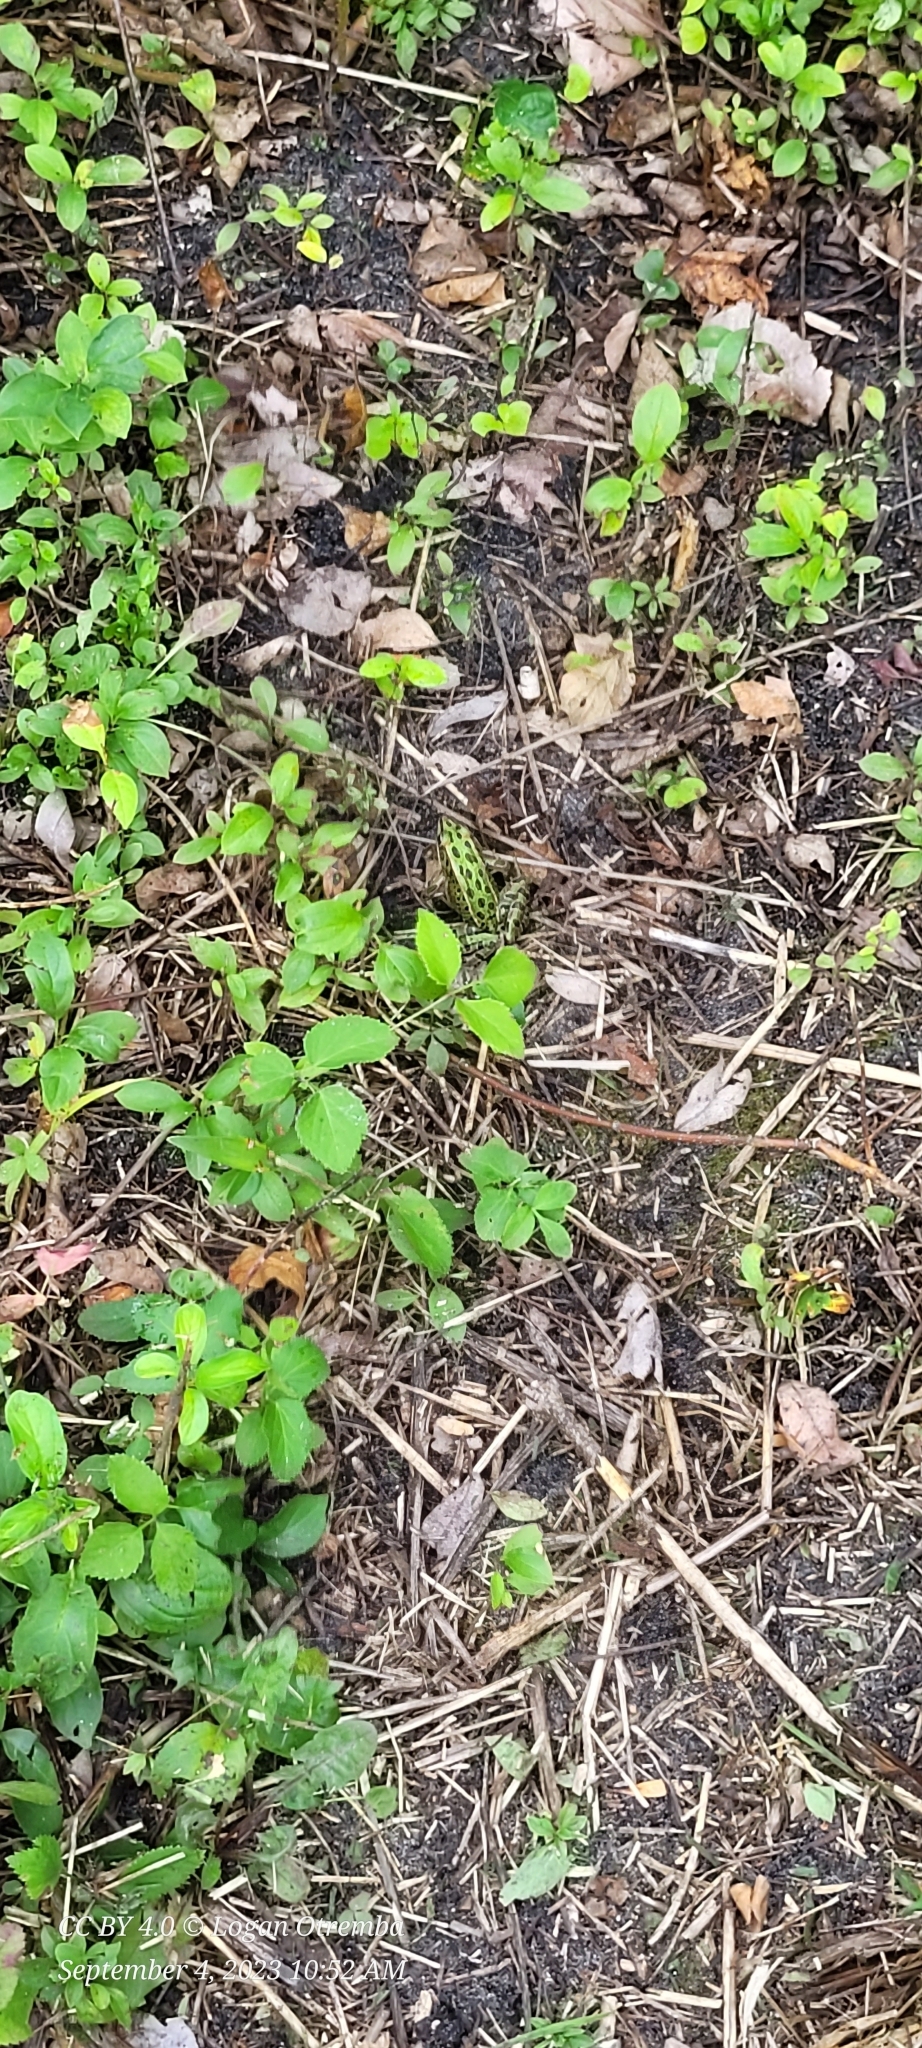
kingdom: Animalia
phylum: Chordata
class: Amphibia
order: Anura
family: Ranidae
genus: Lithobates
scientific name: Lithobates pipiens
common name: Northern leopard frog
